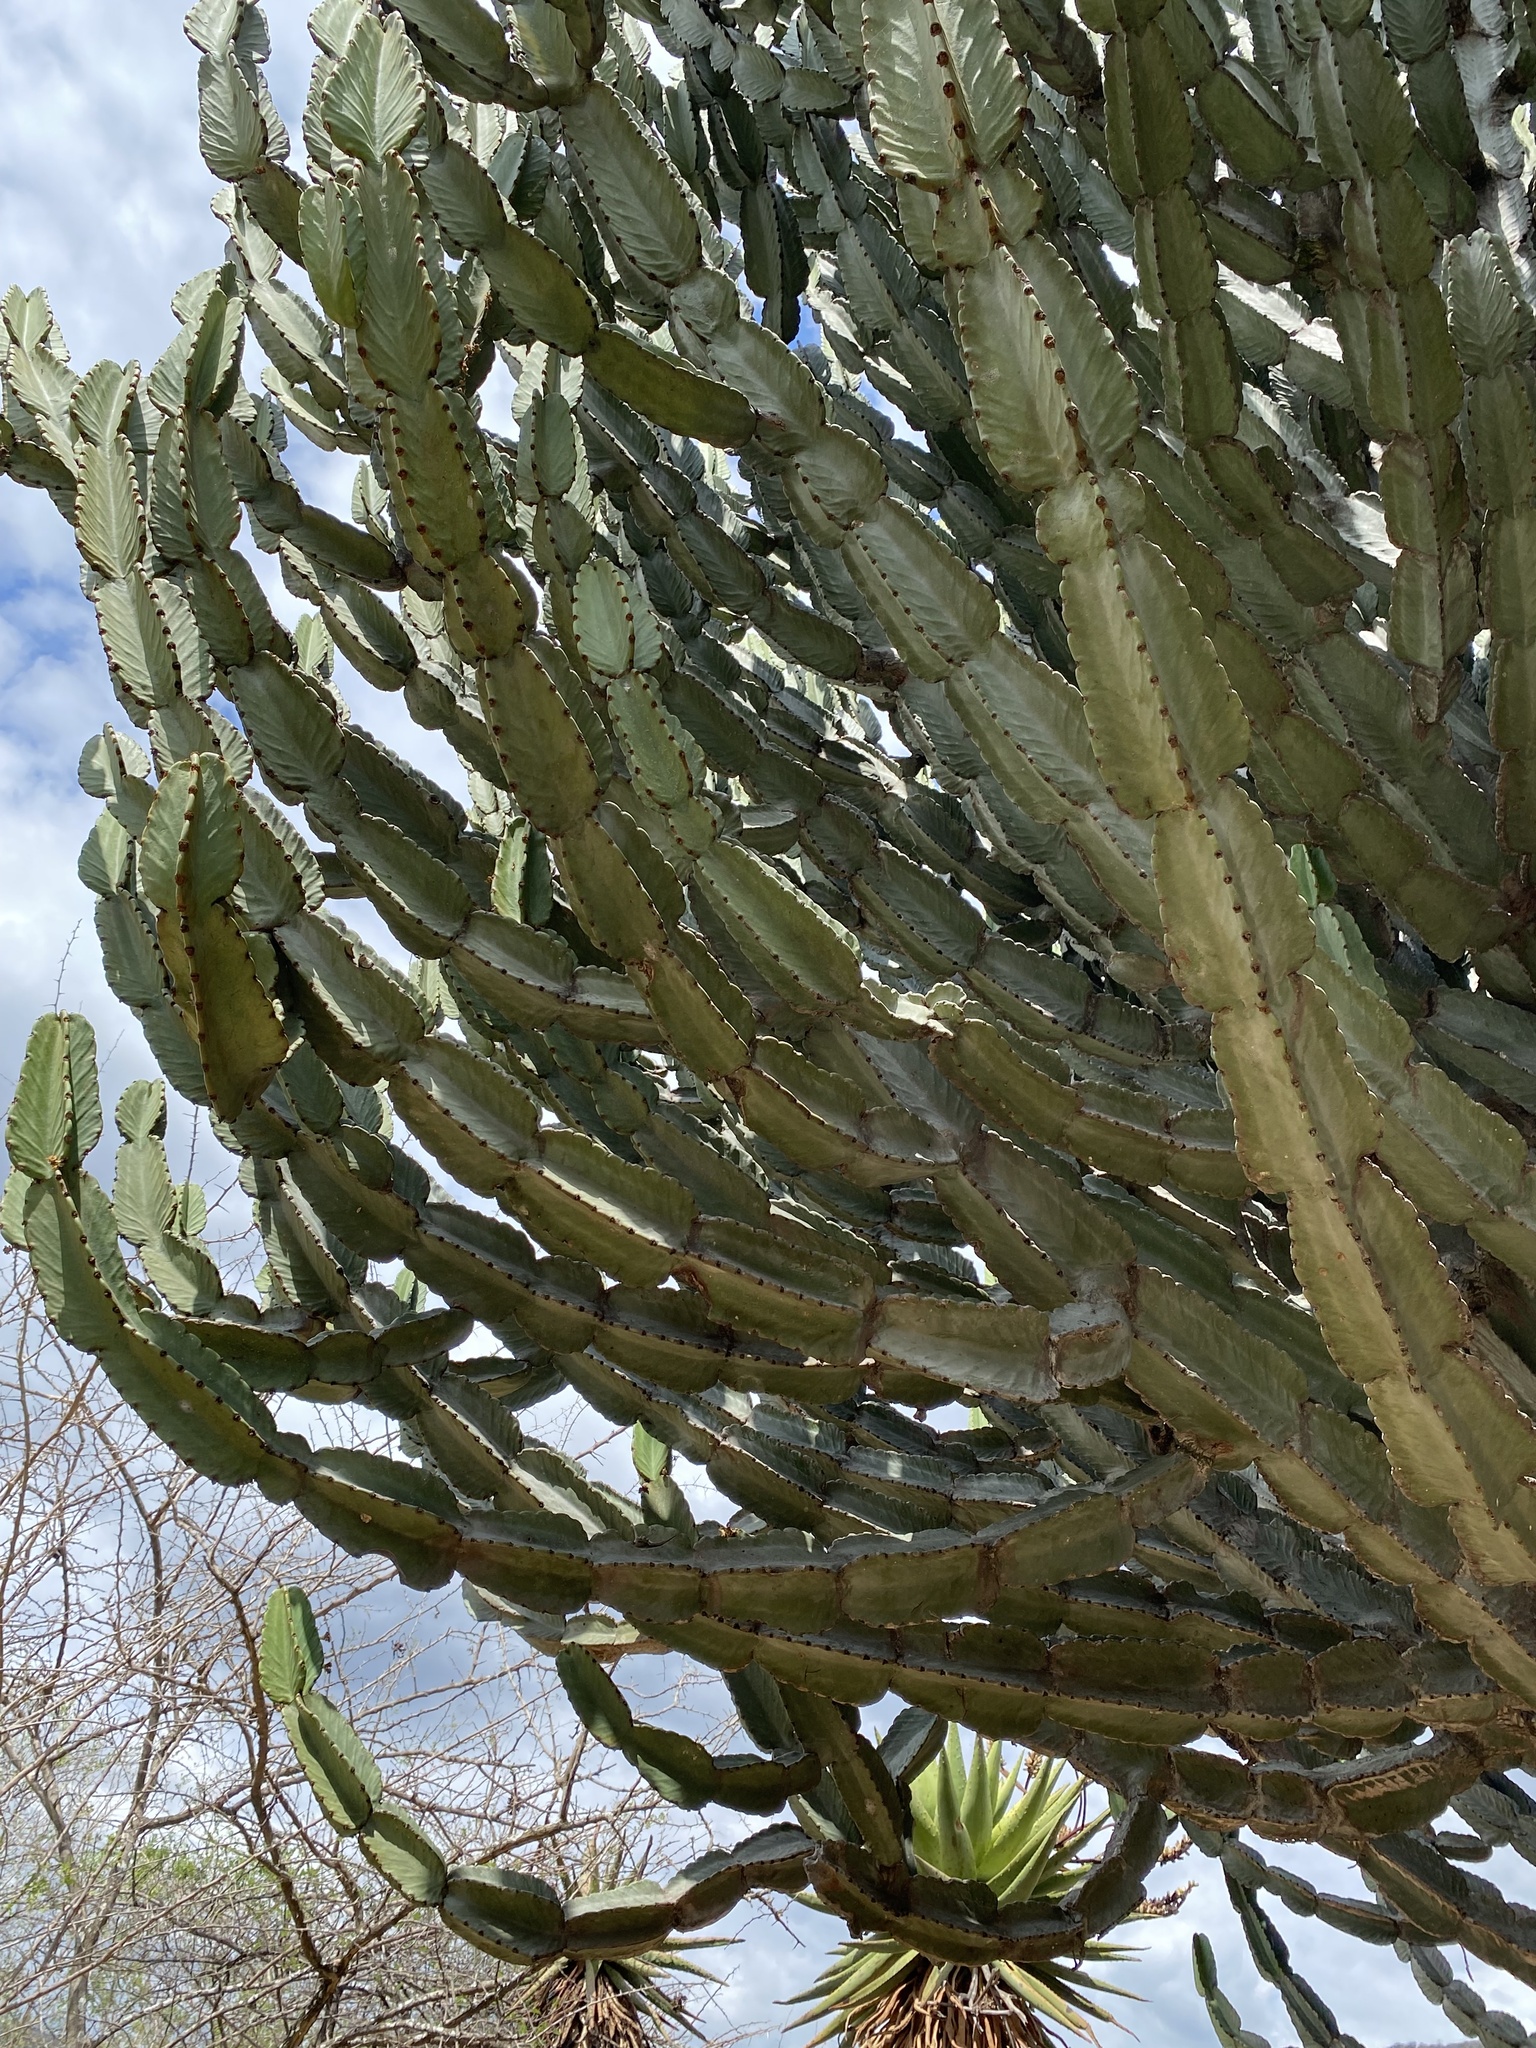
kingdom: Plantae
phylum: Tracheophyta
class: Magnoliopsida
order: Malpighiales
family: Euphorbiaceae
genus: Euphorbia
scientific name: Euphorbia ingens
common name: Cactus spurge
